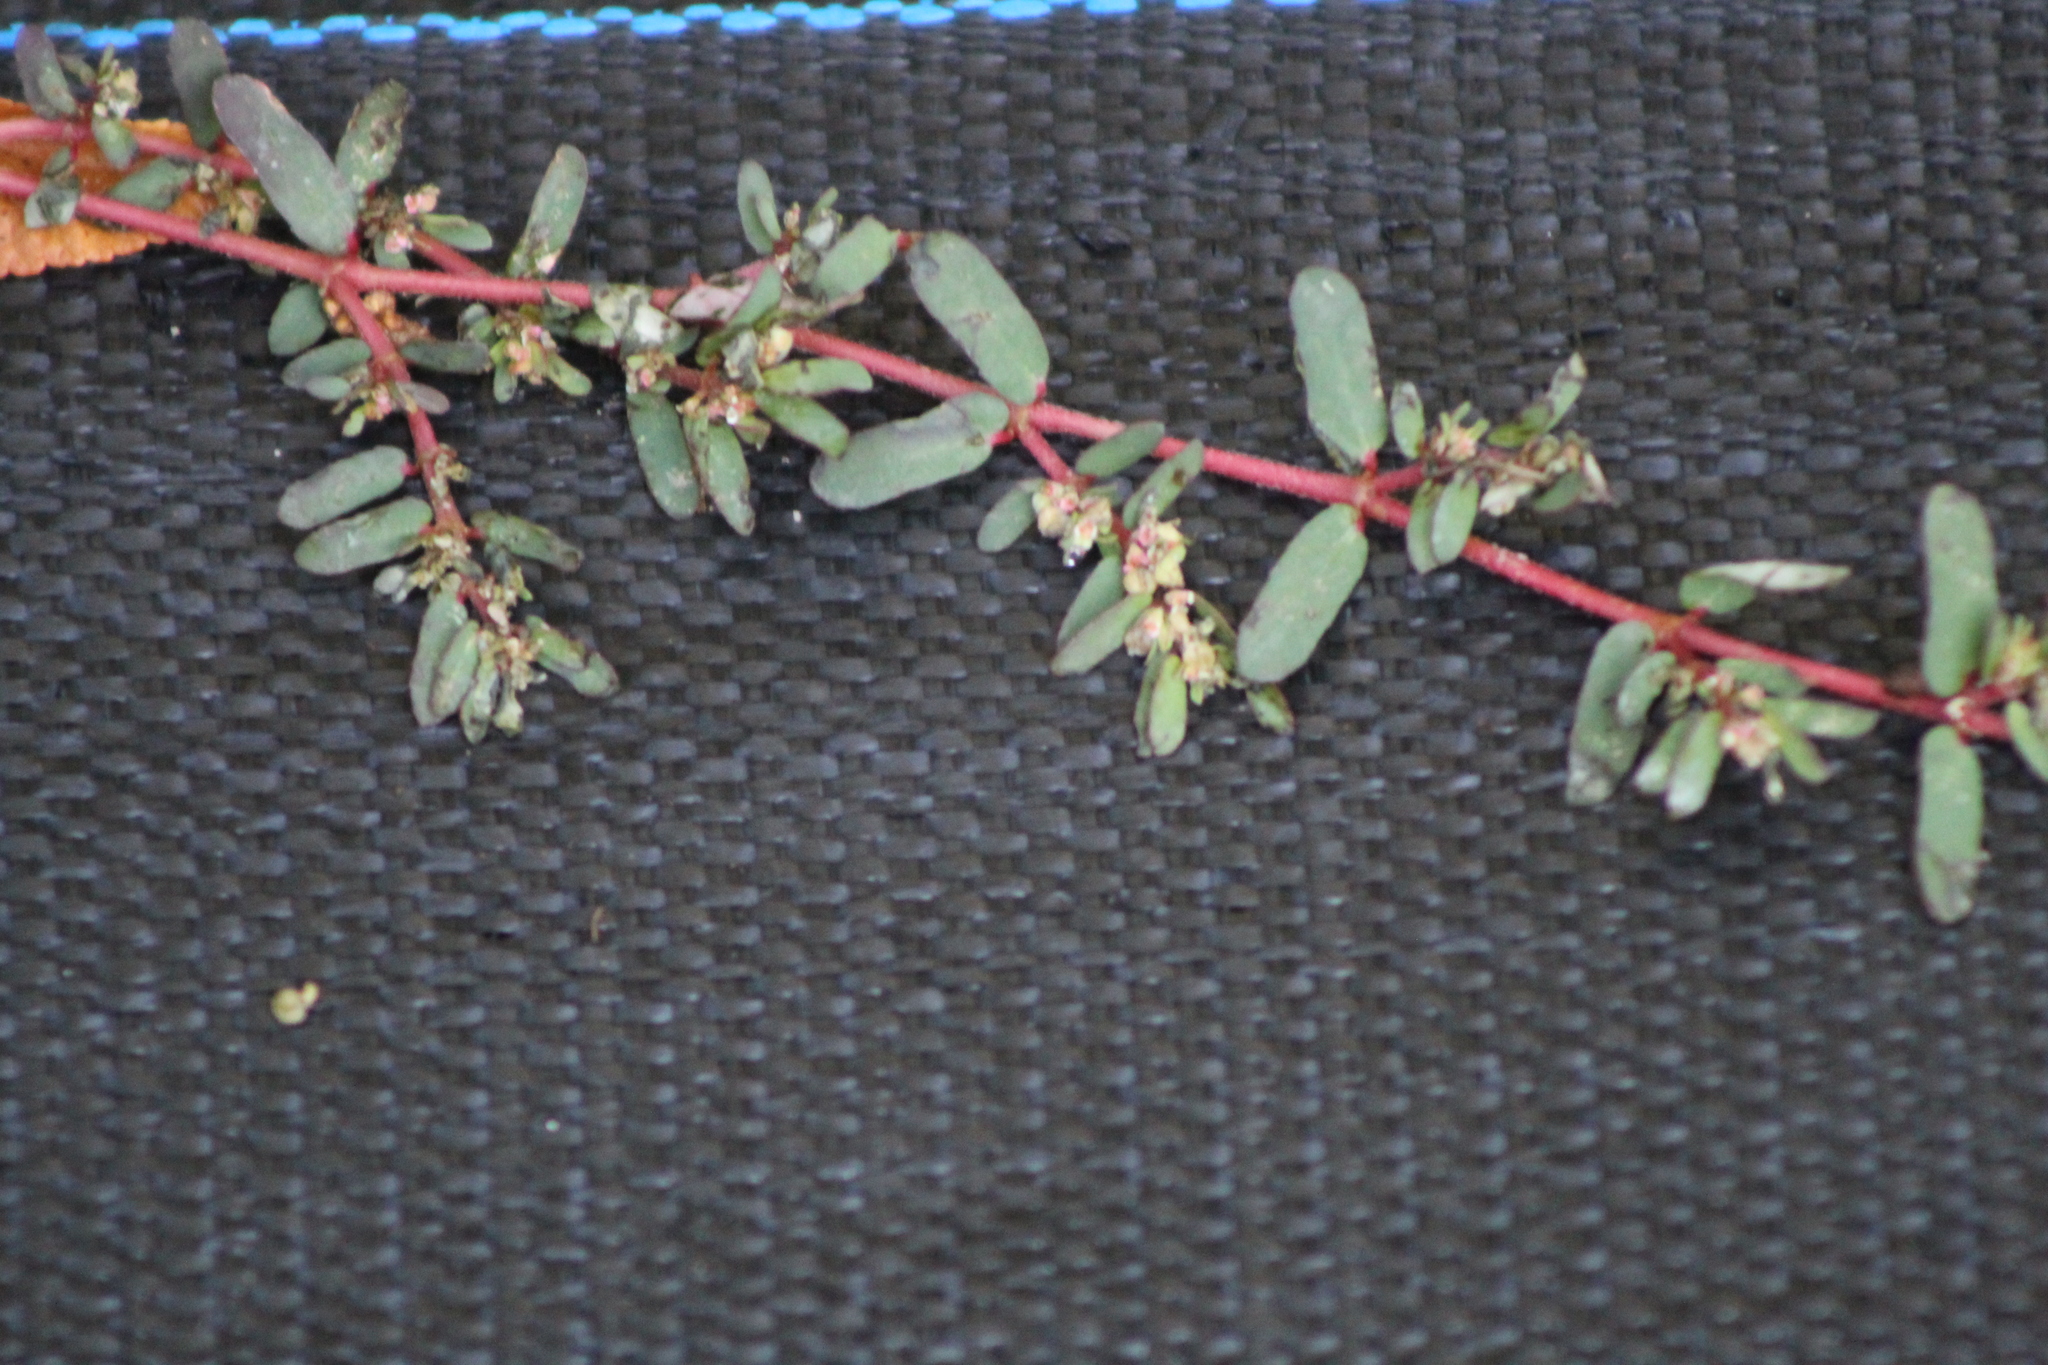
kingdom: Plantae
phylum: Tracheophyta
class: Magnoliopsida
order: Malpighiales
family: Euphorbiaceae
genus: Euphorbia
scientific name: Euphorbia maculata
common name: Spotted spurge
